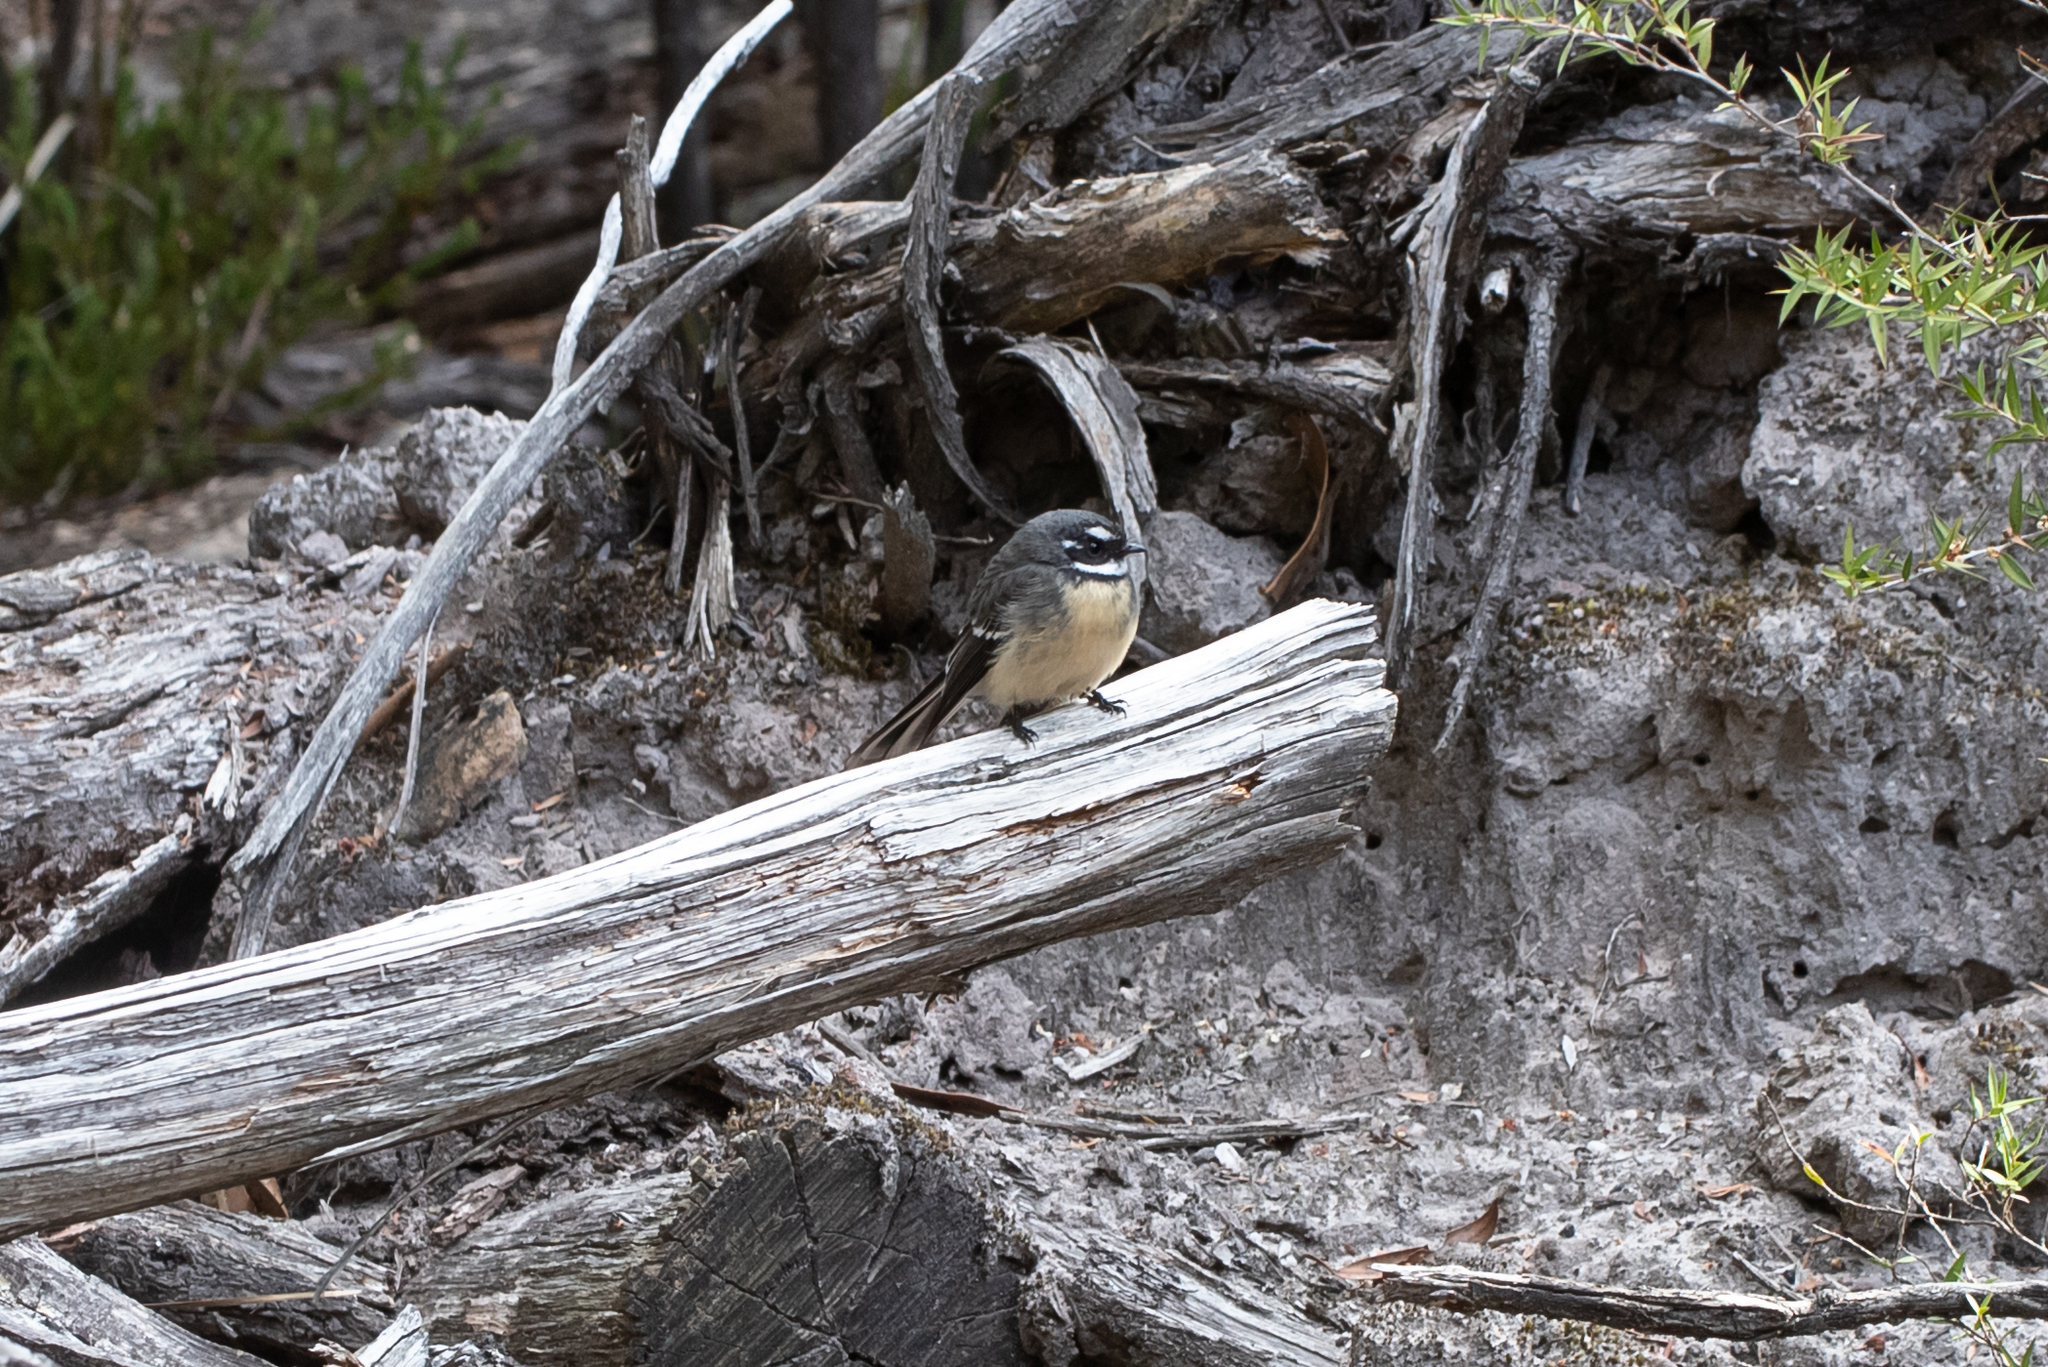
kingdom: Animalia
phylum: Chordata
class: Aves
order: Passeriformes
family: Rhipiduridae
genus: Rhipidura
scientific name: Rhipidura albiscapa
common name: Grey fantail
